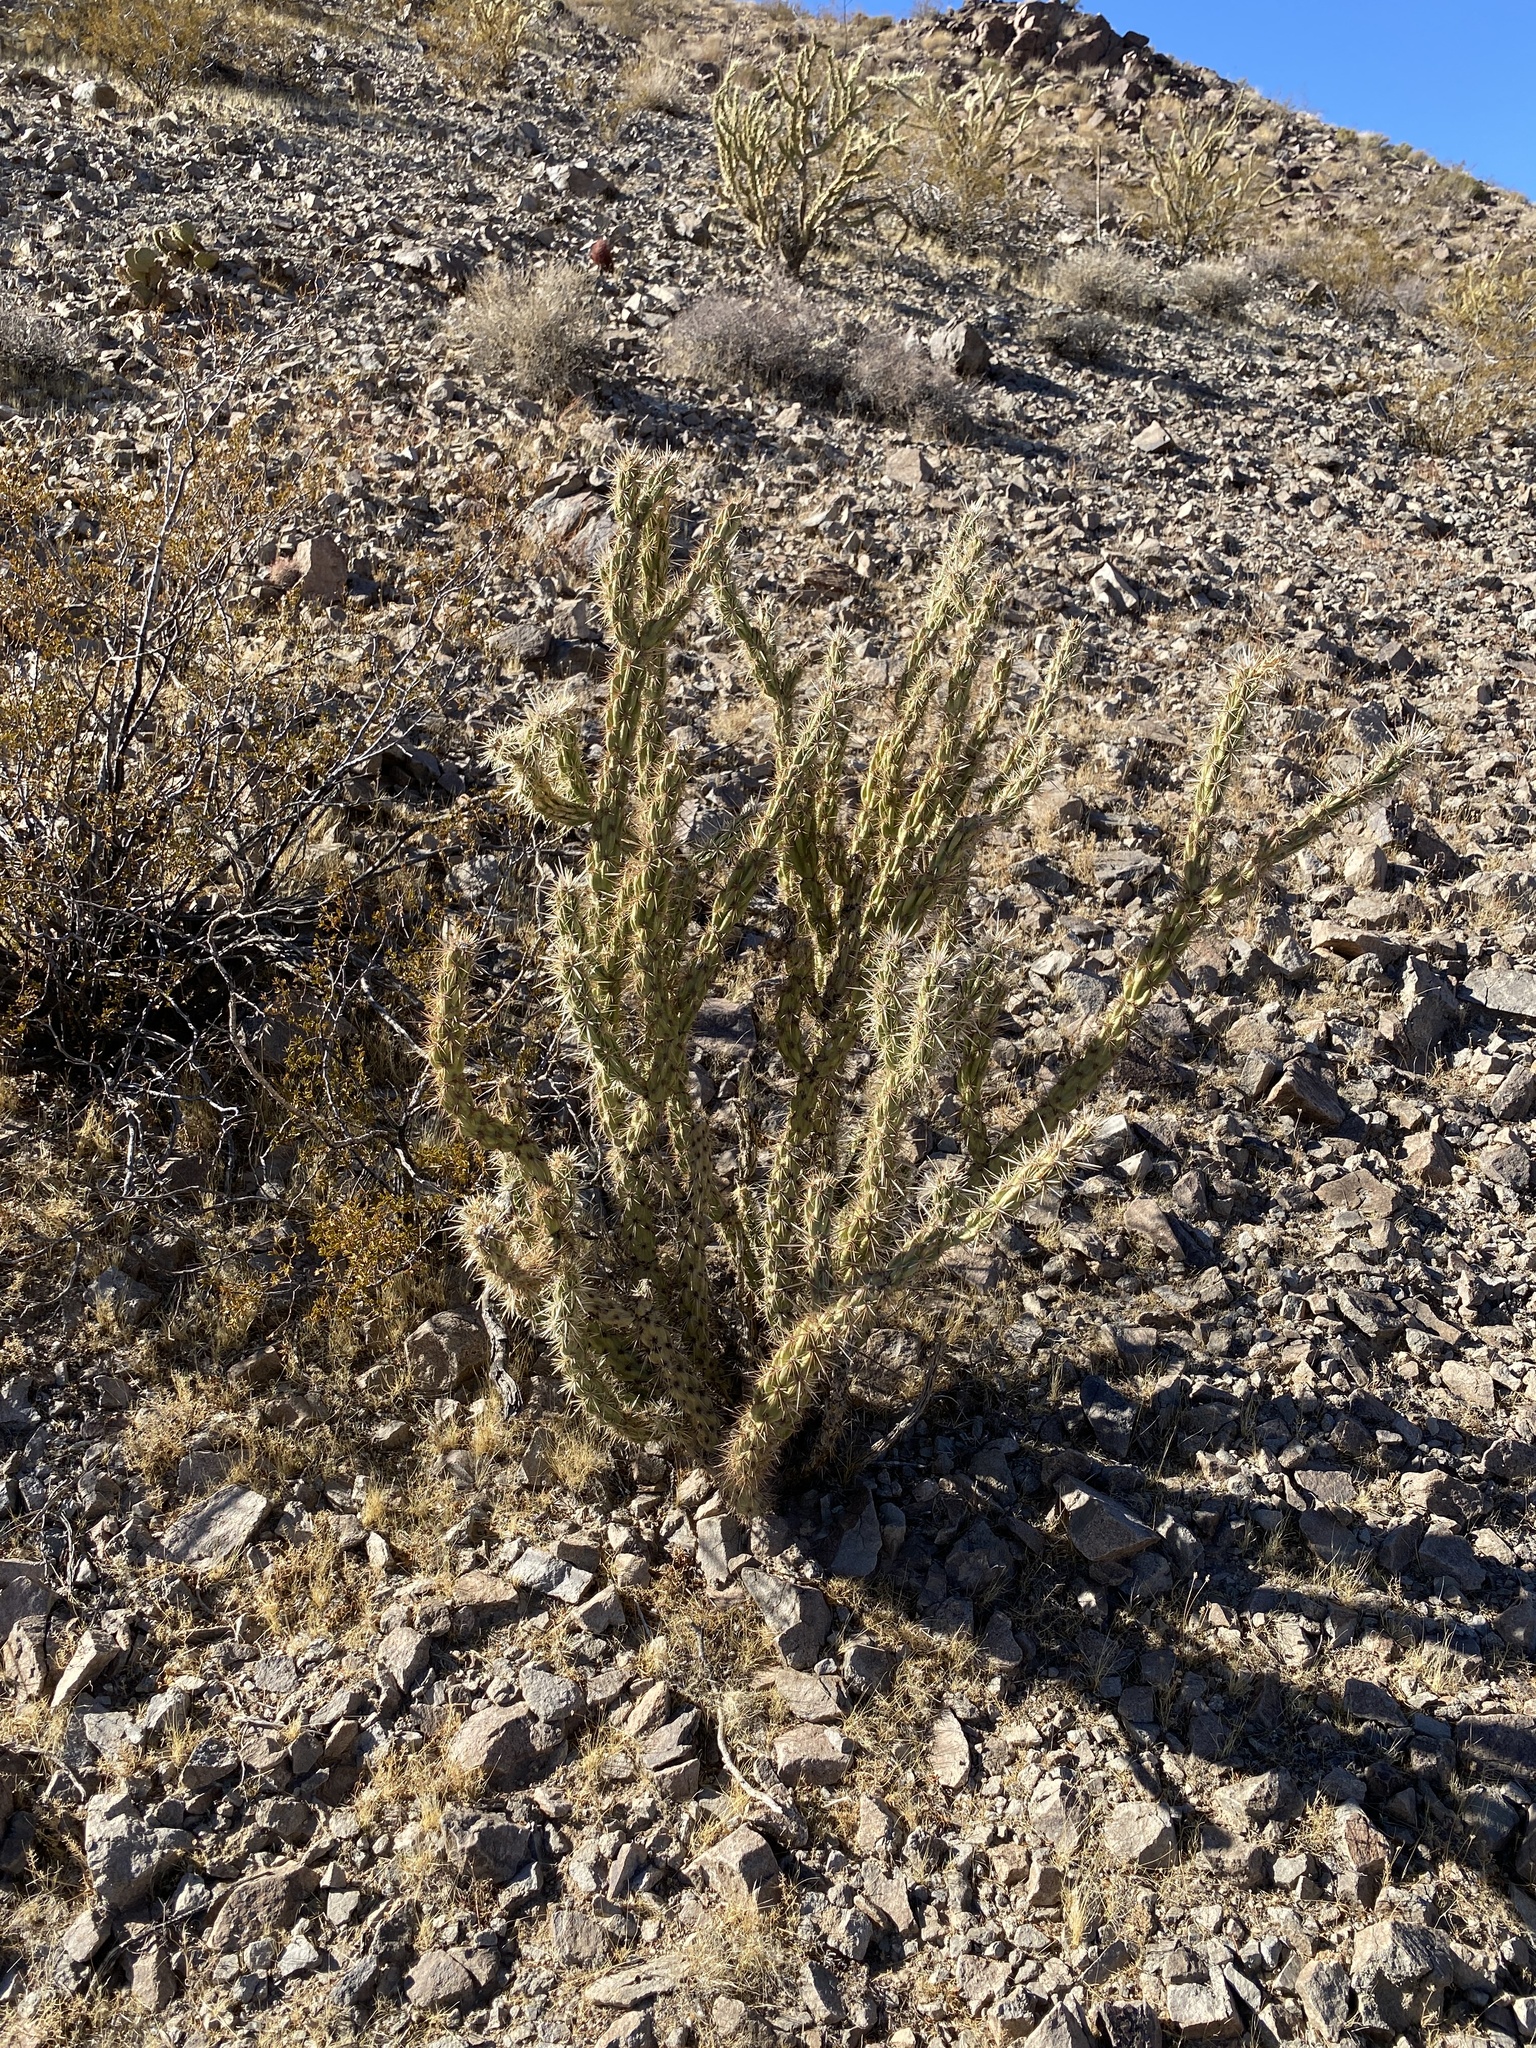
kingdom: Plantae
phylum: Tracheophyta
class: Magnoliopsida
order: Caryophyllales
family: Cactaceae
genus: Cylindropuntia
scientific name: Cylindropuntia acanthocarpa
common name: Buckhorn cholla
